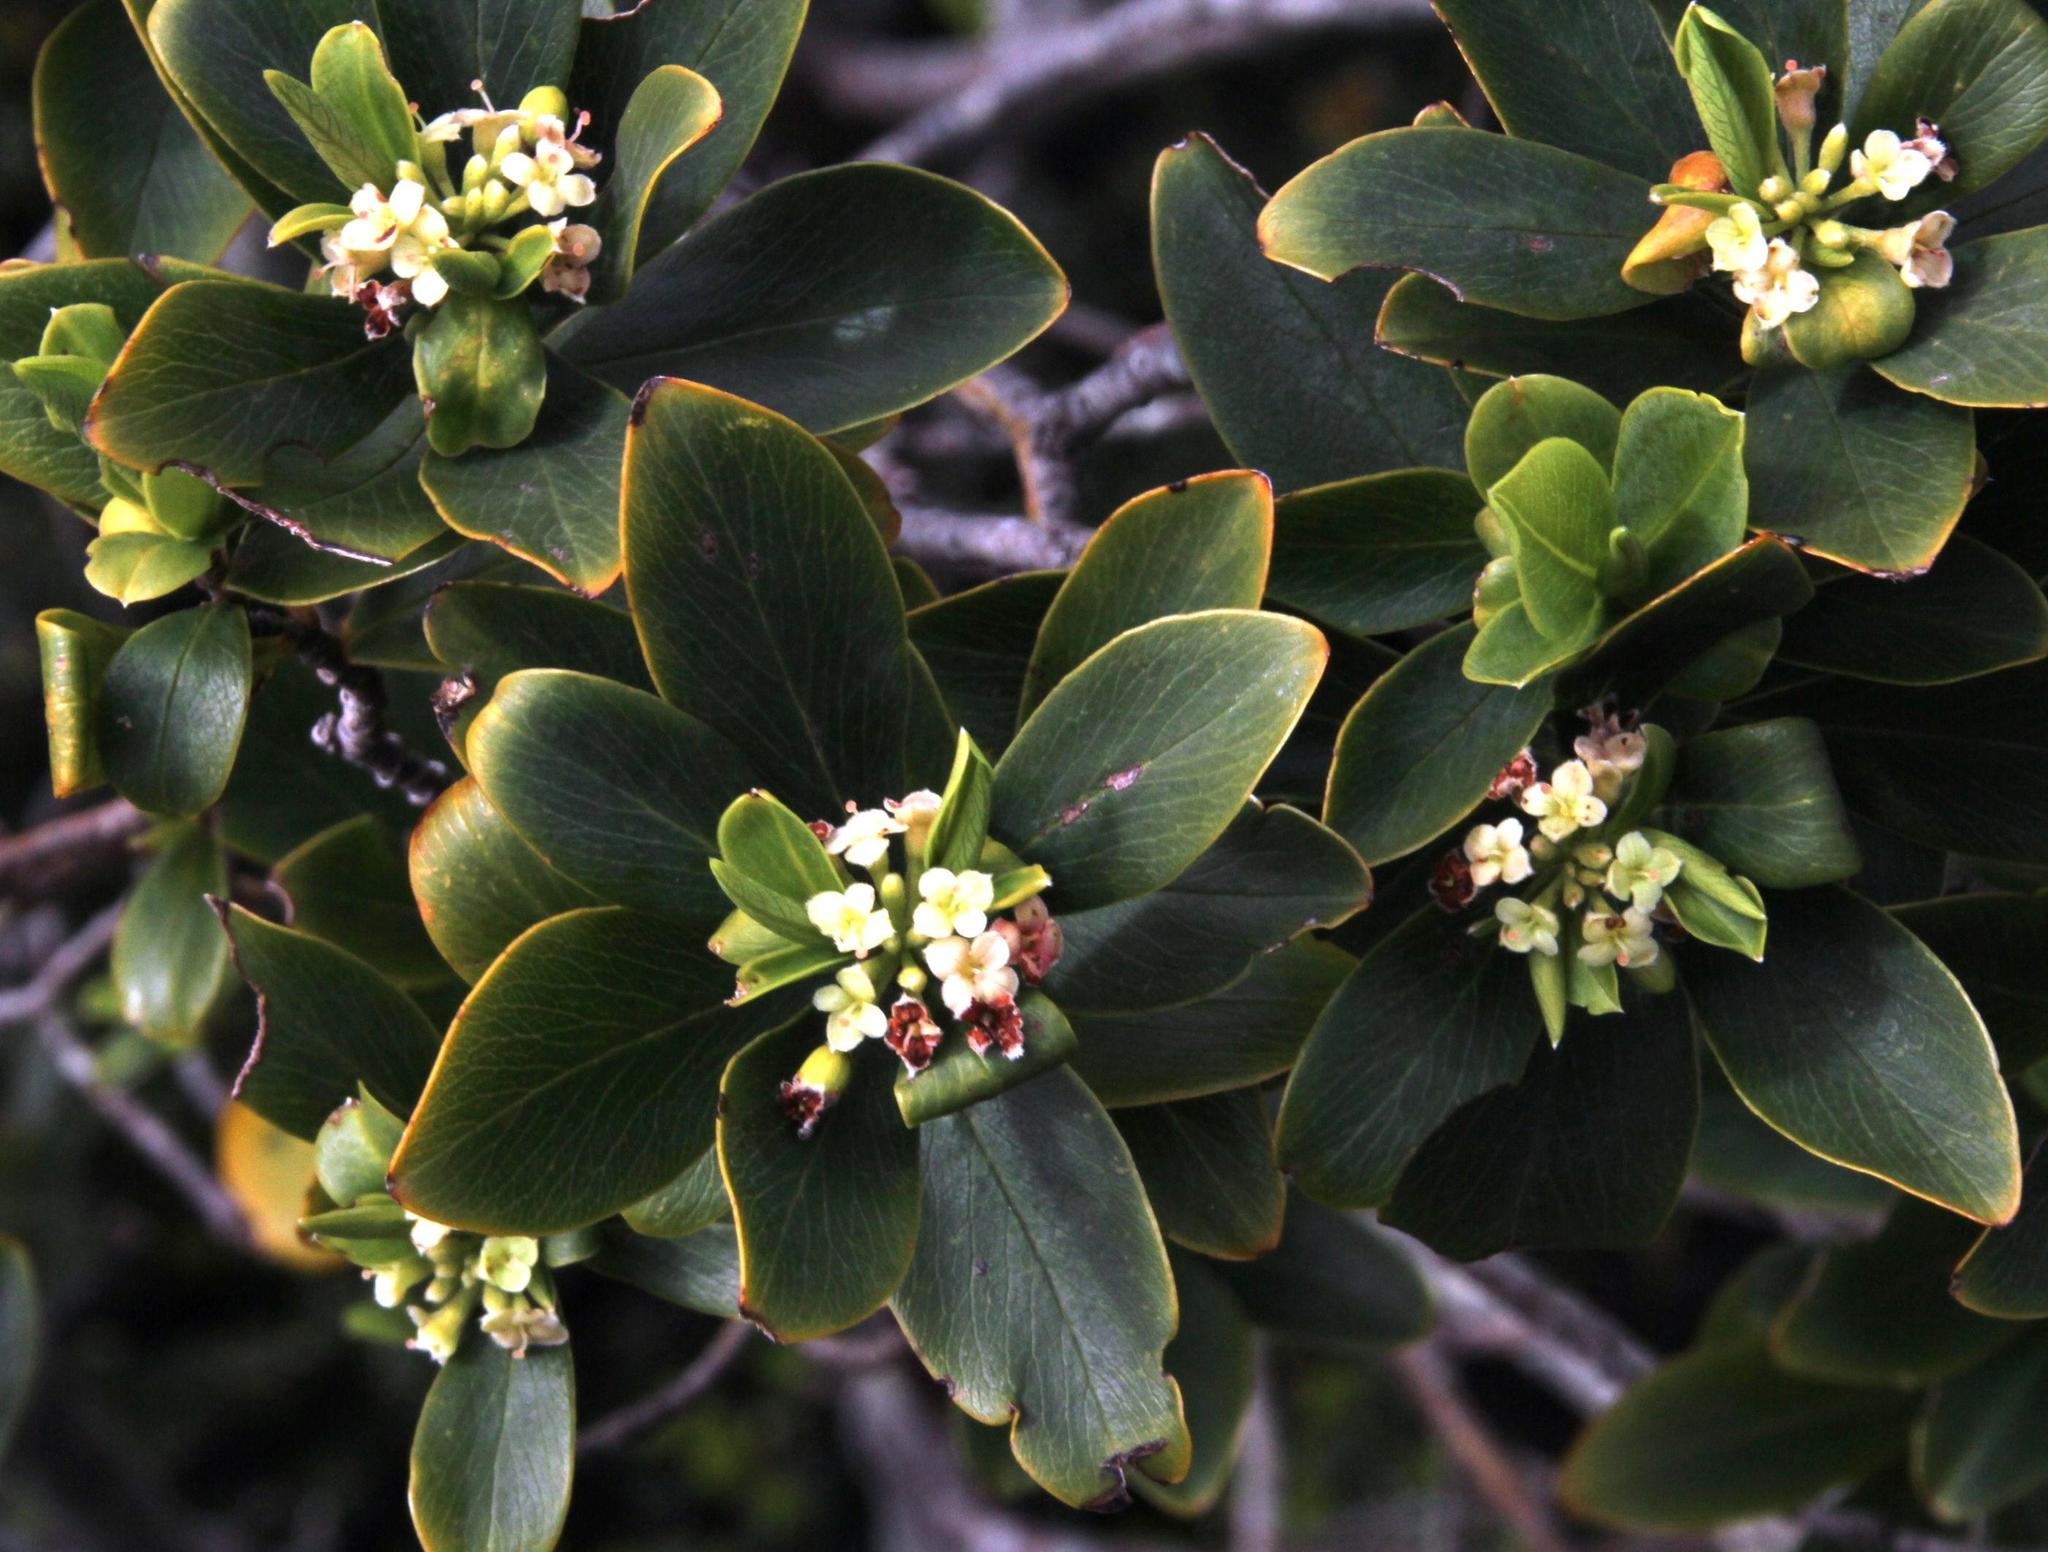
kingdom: Plantae
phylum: Tracheophyta
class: Magnoliopsida
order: Malvales
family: Thymelaeaceae
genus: Ovidia
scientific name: Ovidia andina
